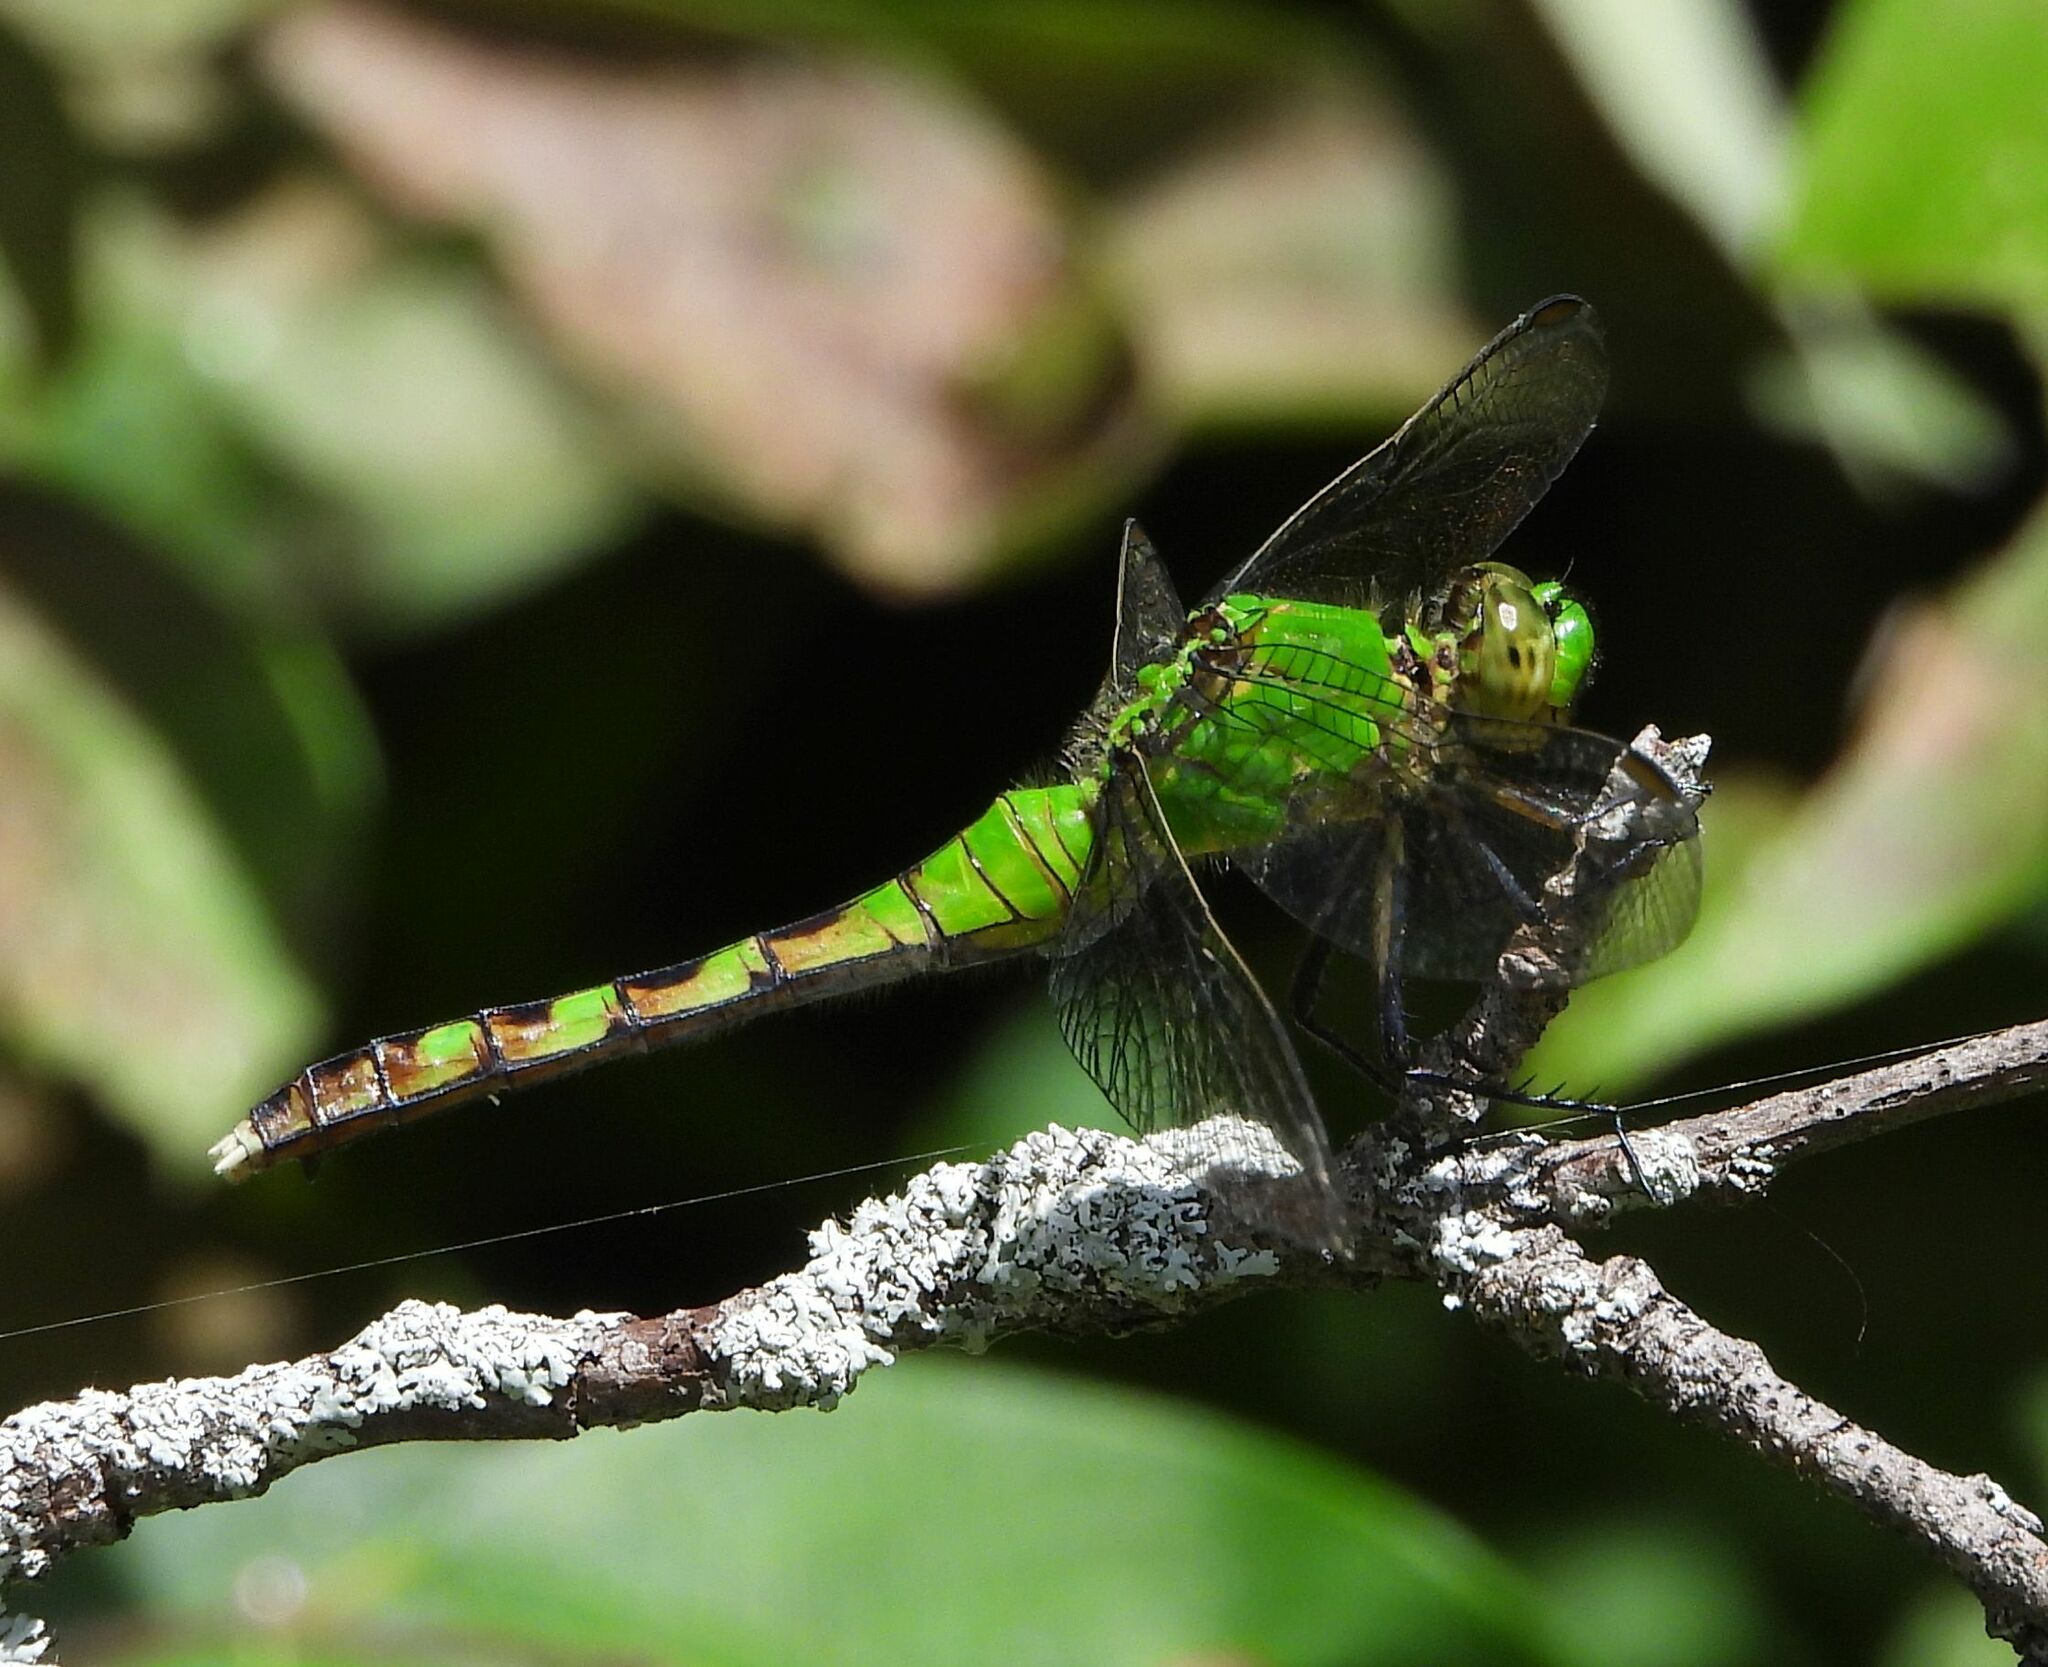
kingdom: Animalia
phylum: Arthropoda
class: Insecta
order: Odonata
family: Libellulidae
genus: Erythemis
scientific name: Erythemis simplicicollis
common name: Eastern pondhawk
